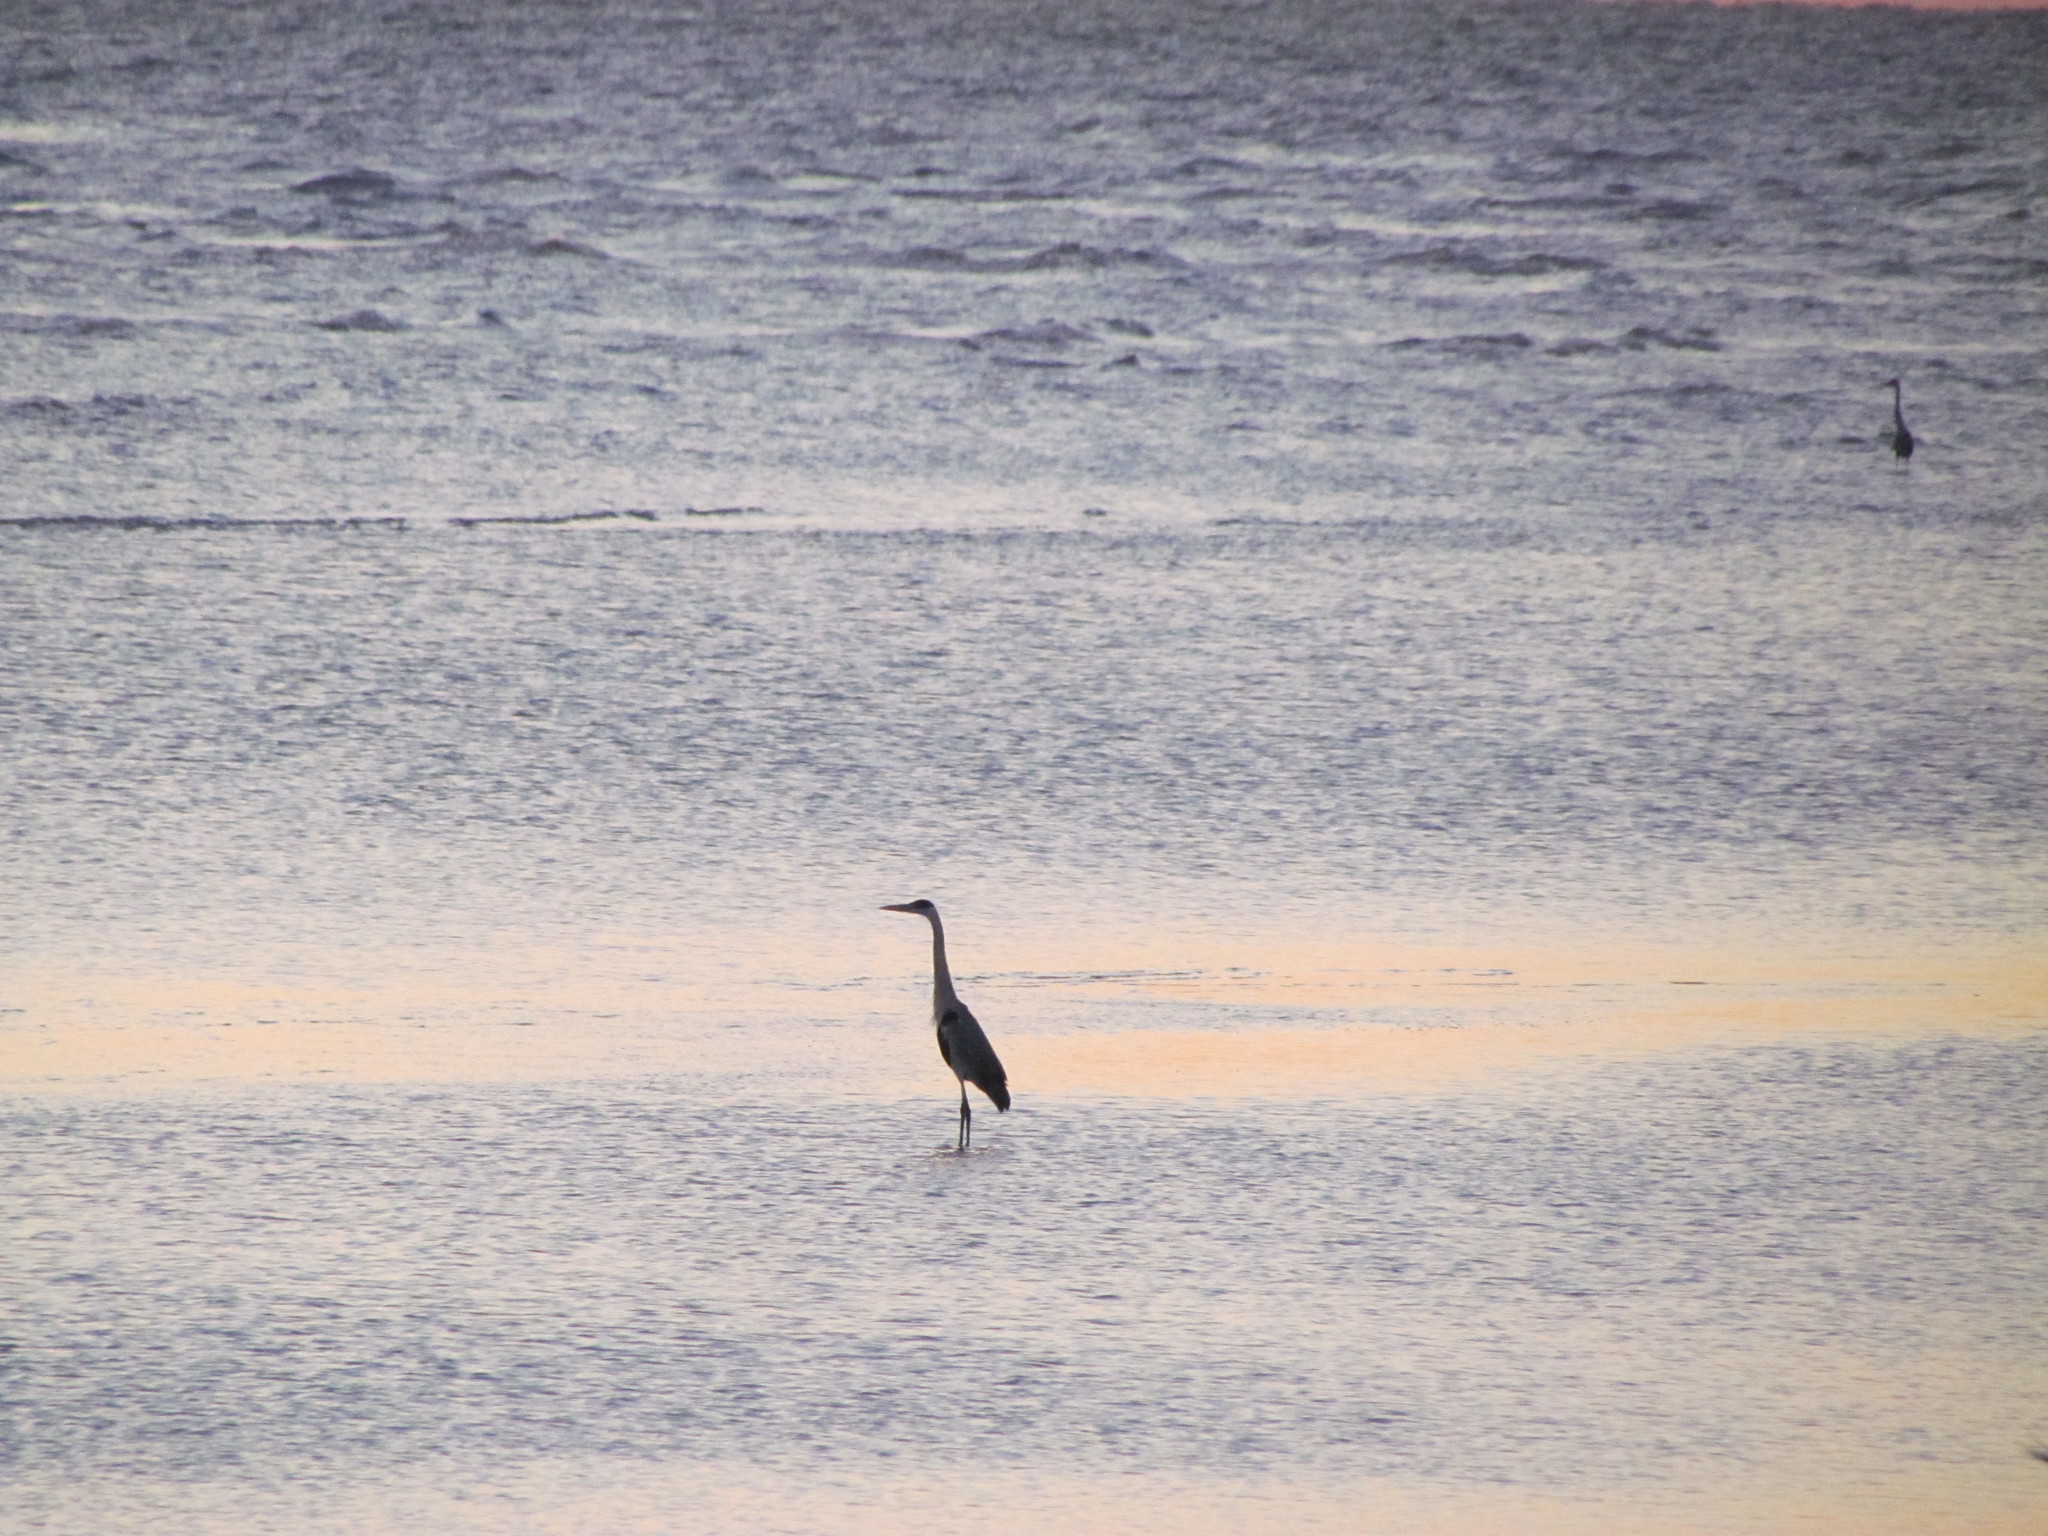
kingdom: Animalia
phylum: Chordata
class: Aves
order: Pelecaniformes
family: Ardeidae
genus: Ardea
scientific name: Ardea cocoi
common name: Cocoi heron
